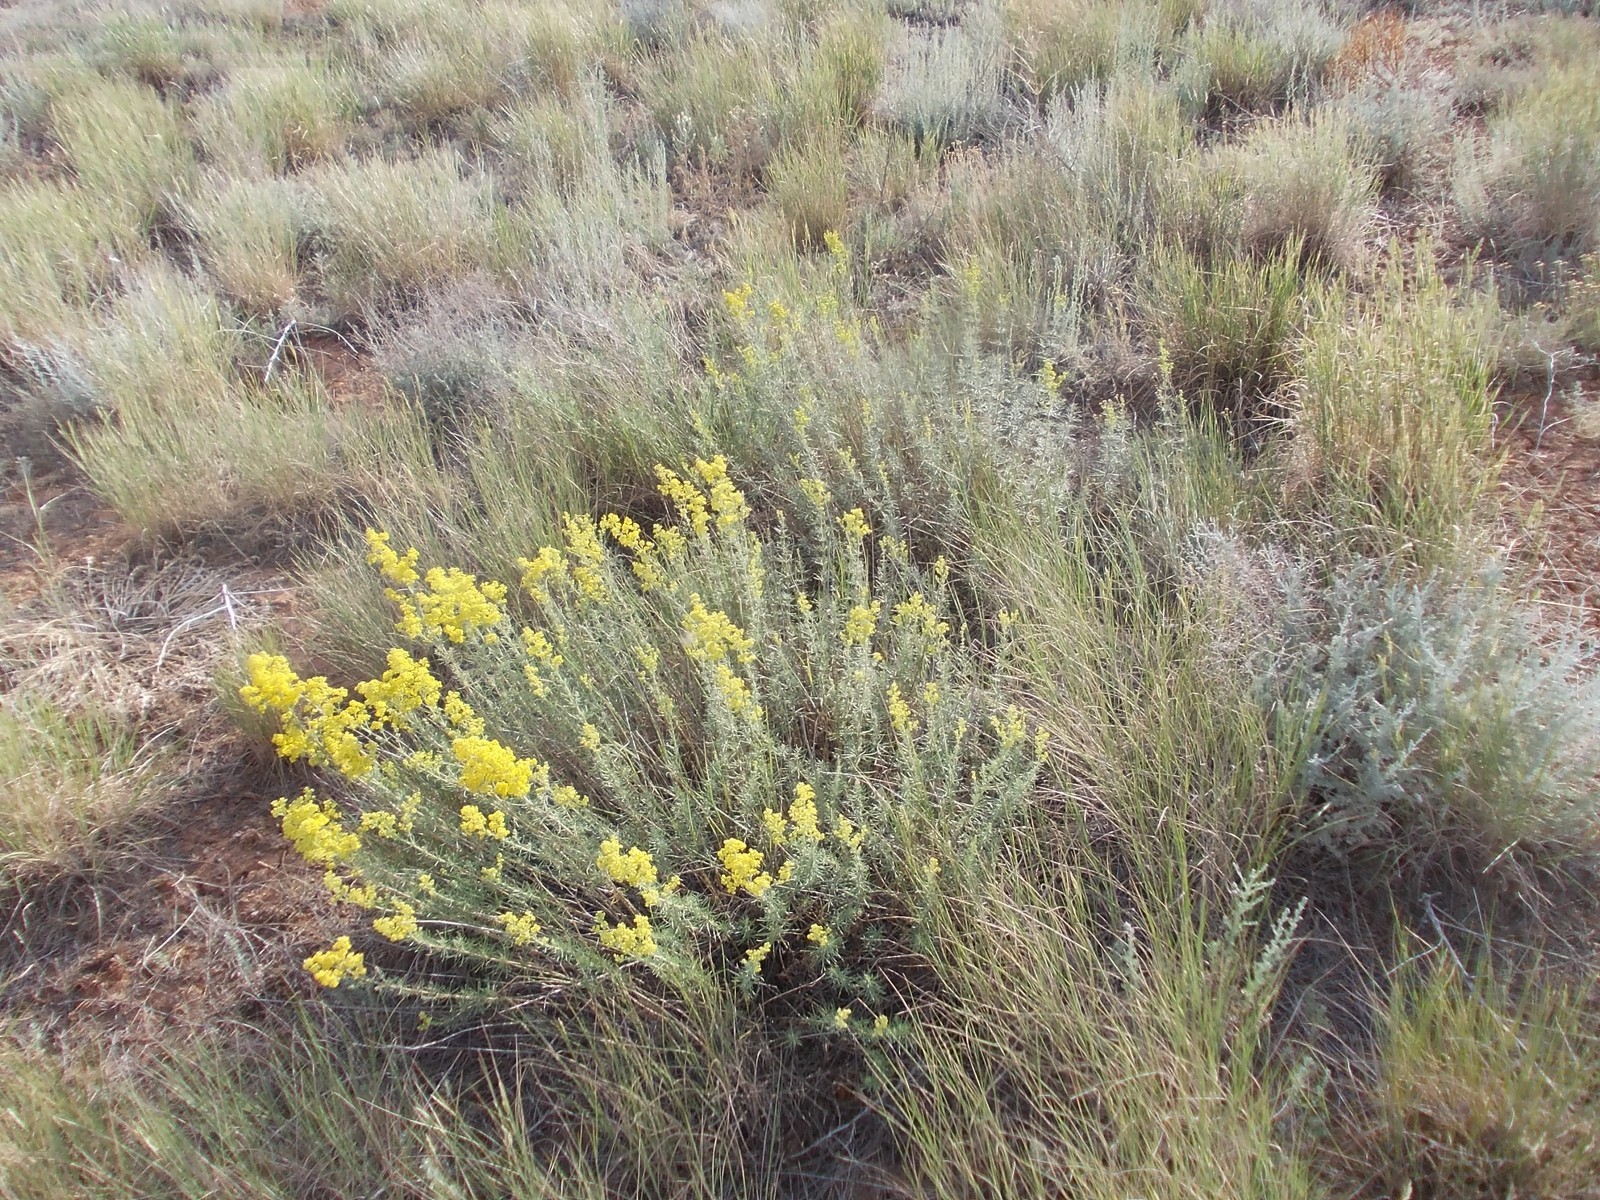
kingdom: Plantae
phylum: Tracheophyta
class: Magnoliopsida
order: Gentianales
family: Rubiaceae
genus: Galium
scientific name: Galium verum
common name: Lady's bedstraw
